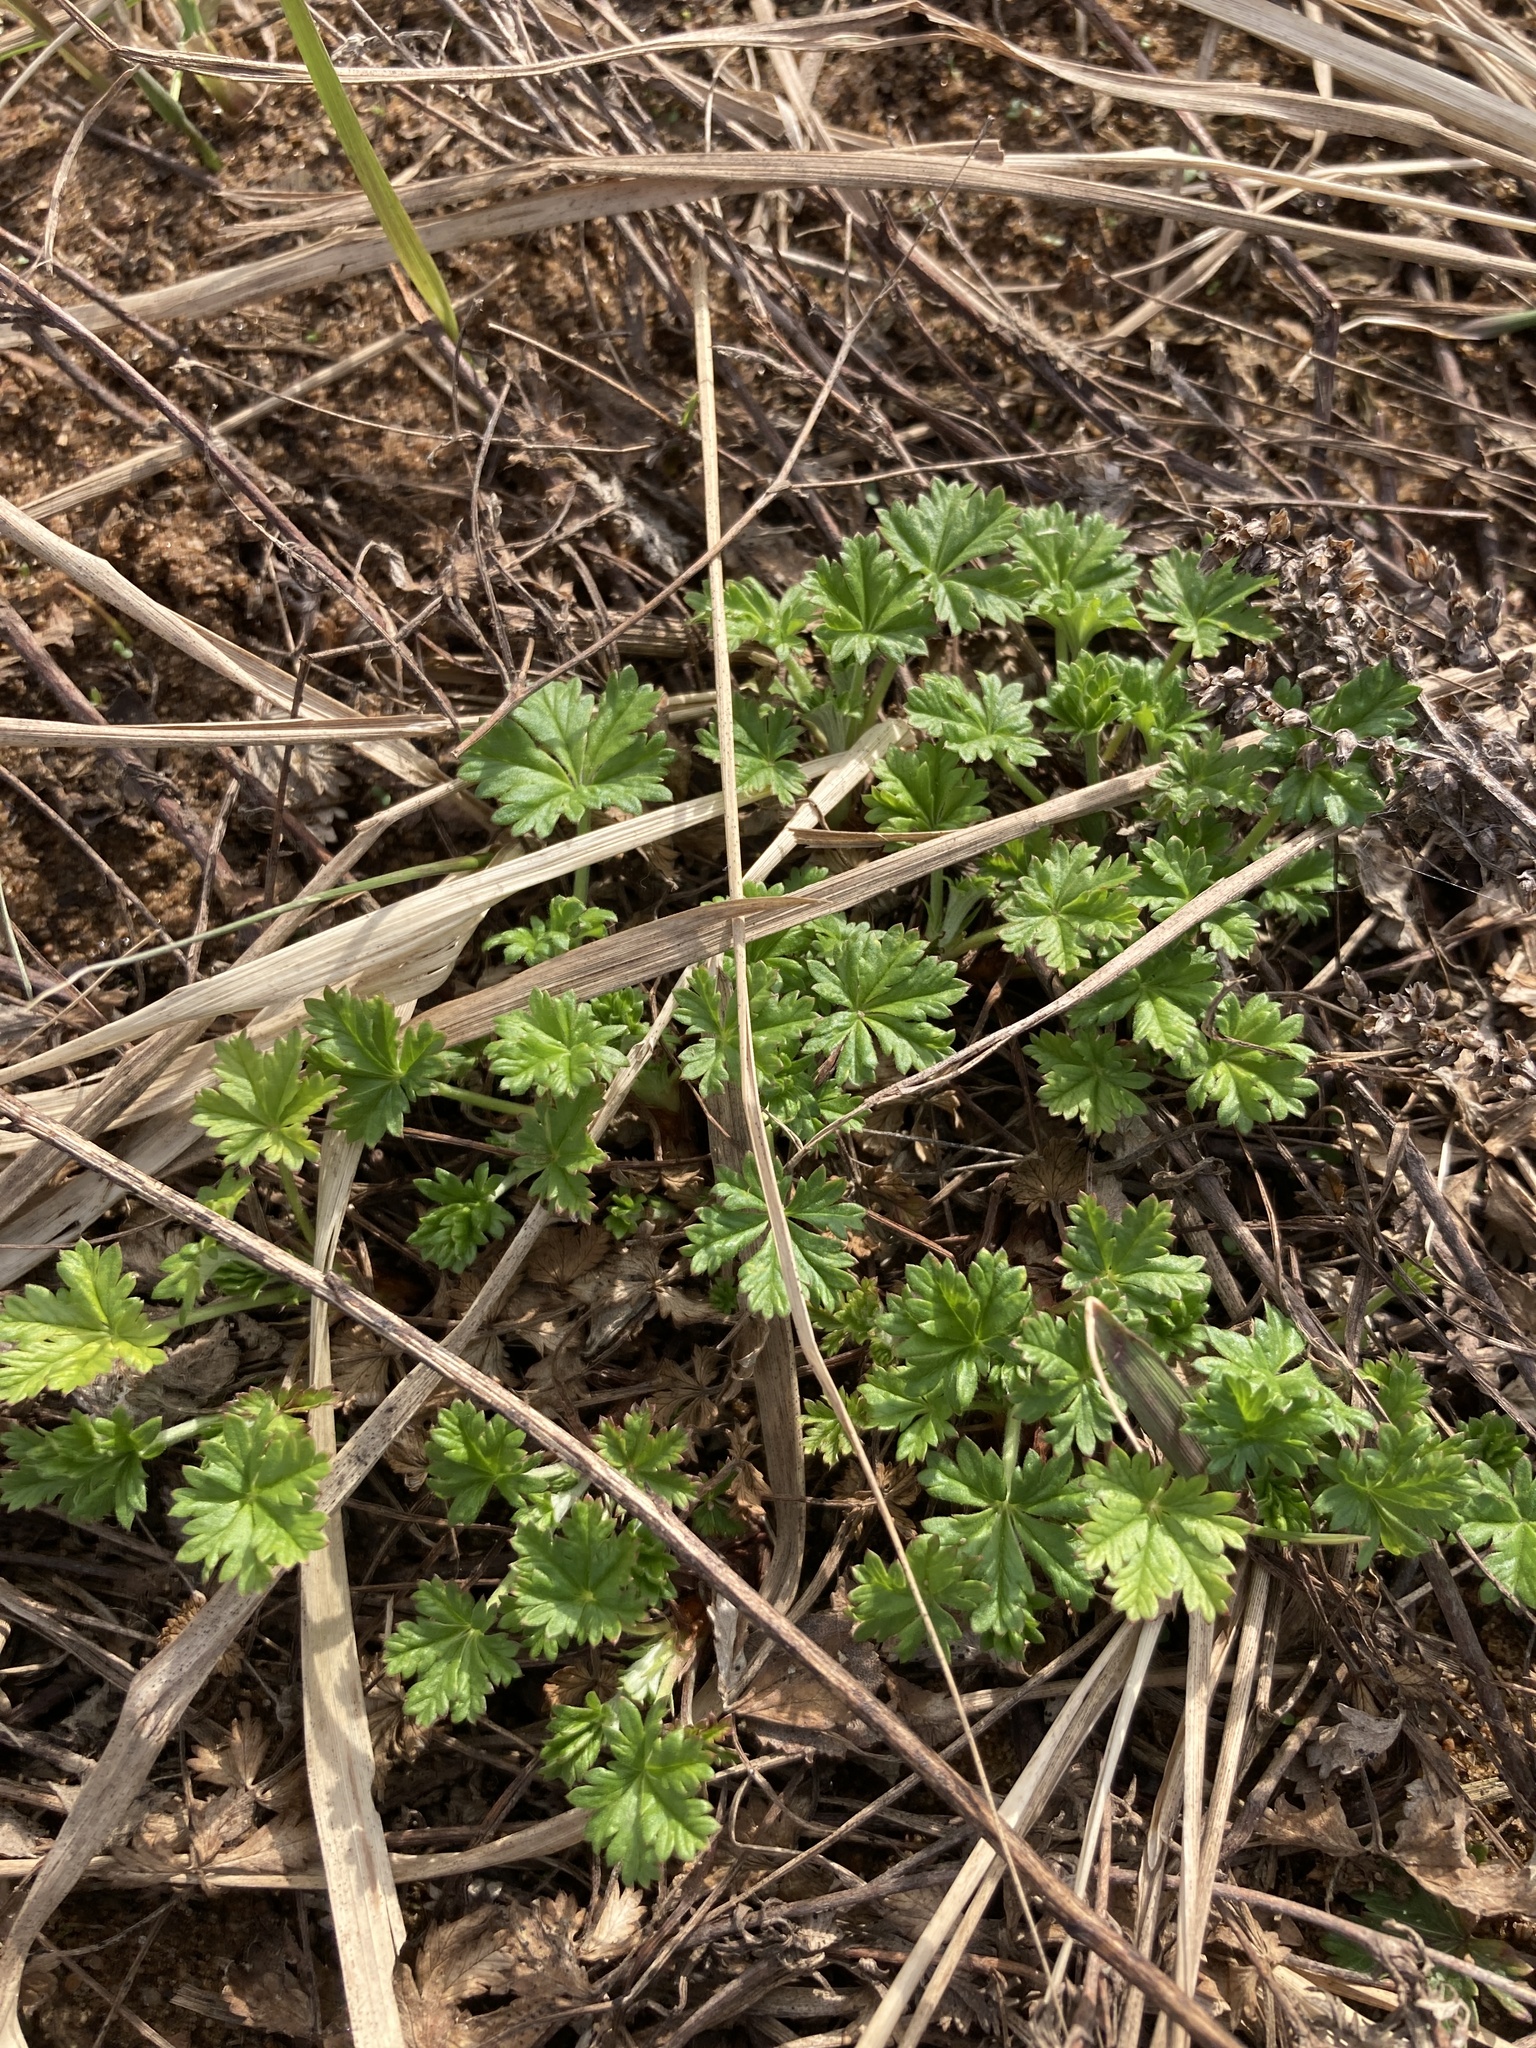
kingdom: Plantae
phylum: Tracheophyta
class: Magnoliopsida
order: Rosales
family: Rosaceae
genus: Potentilla
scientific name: Potentilla argentea
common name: Hoary cinquefoil
